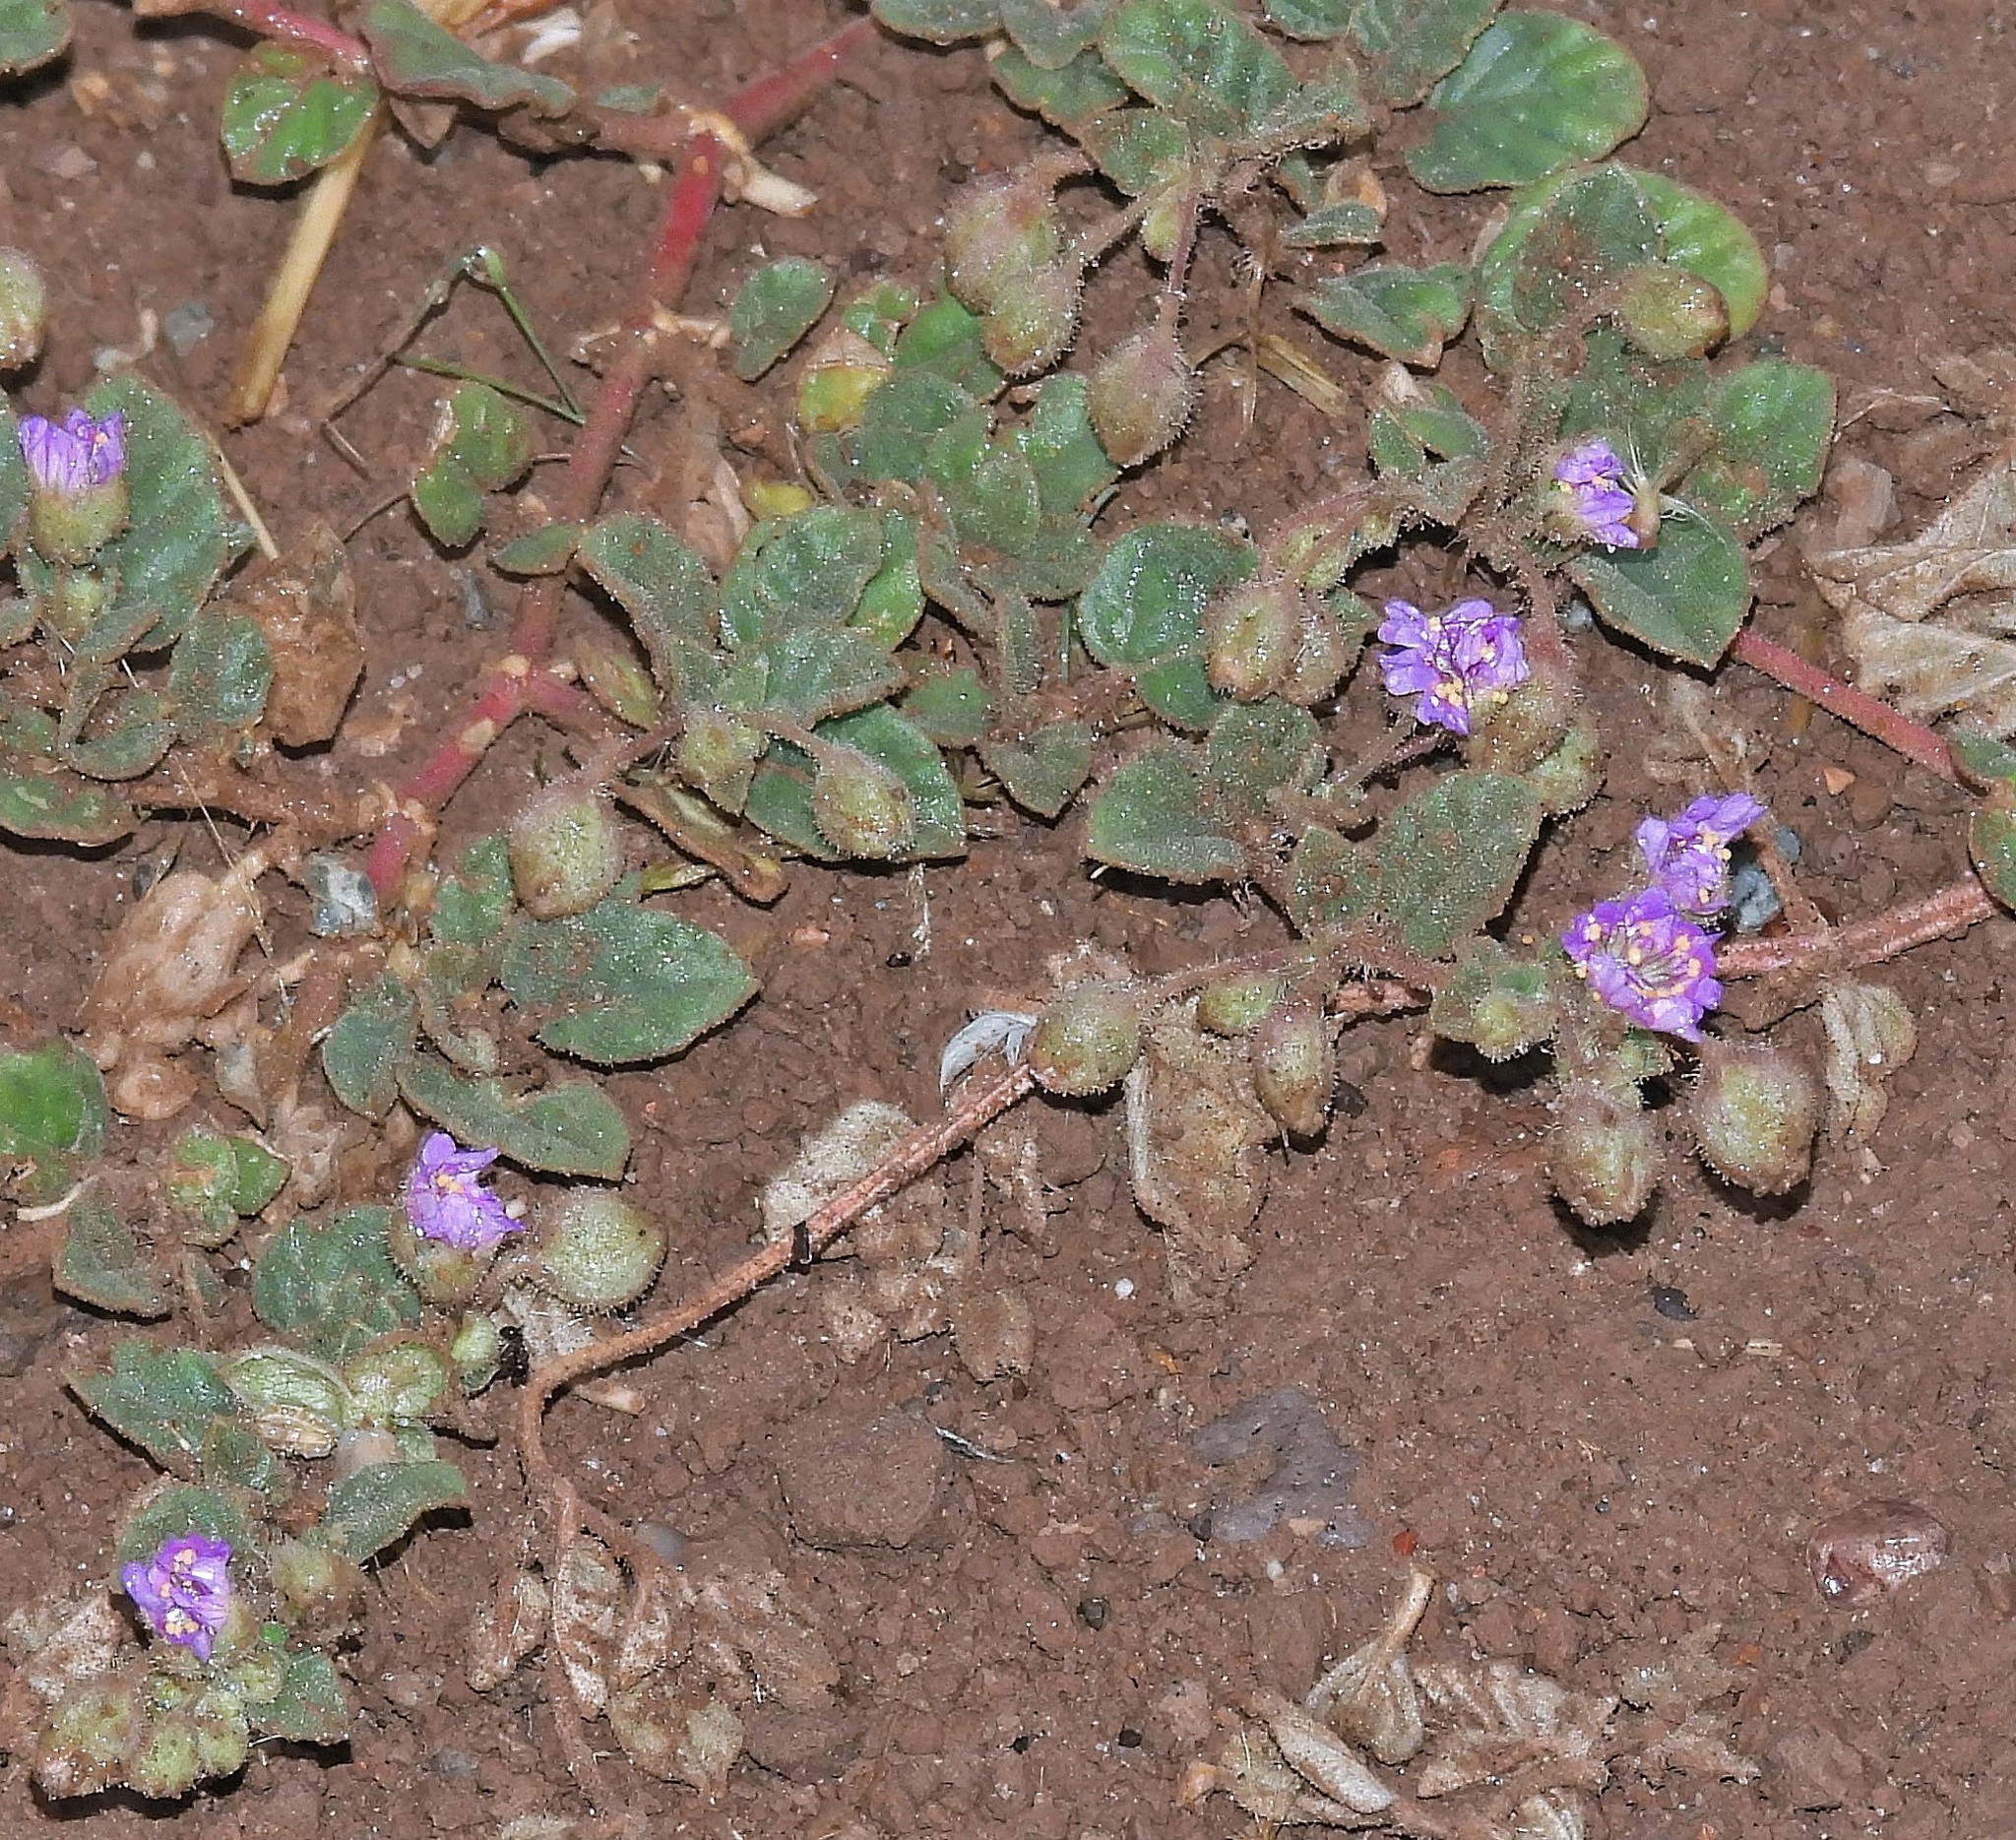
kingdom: Plantae
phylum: Tracheophyta
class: Magnoliopsida
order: Caryophyllales
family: Nyctaginaceae
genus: Allionia
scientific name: Allionia incarnata
